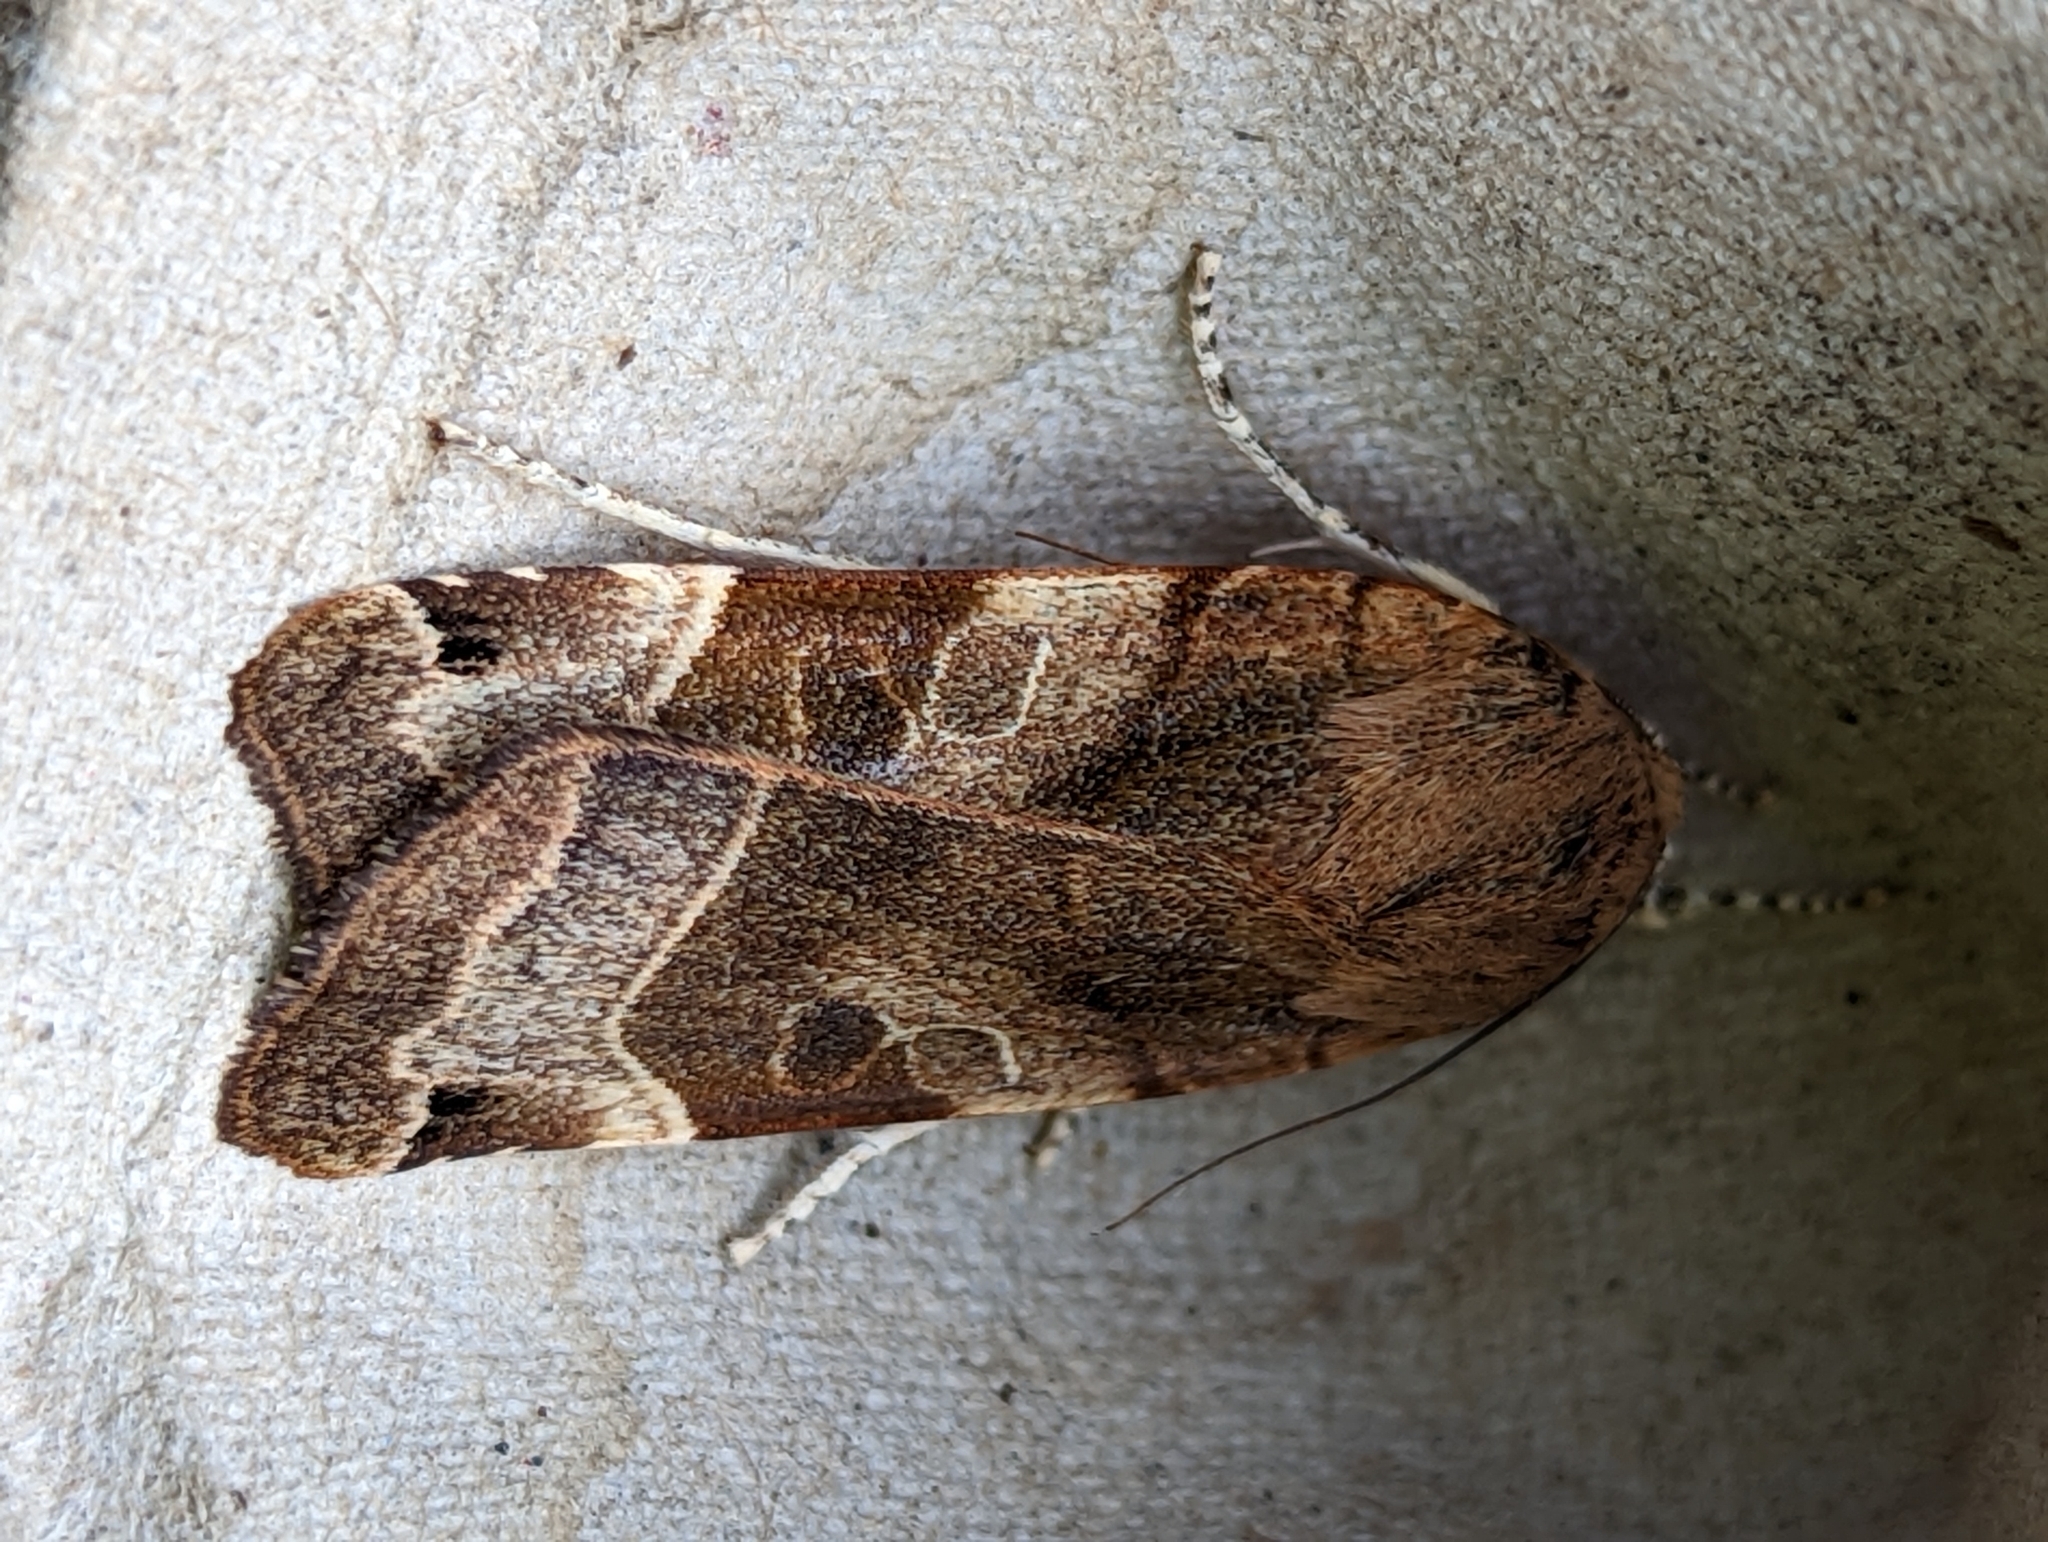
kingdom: Animalia
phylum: Arthropoda
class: Insecta
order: Lepidoptera
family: Noctuidae
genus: Noctua
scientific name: Noctua fimbriata
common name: Broad-bordered yellow underwing
